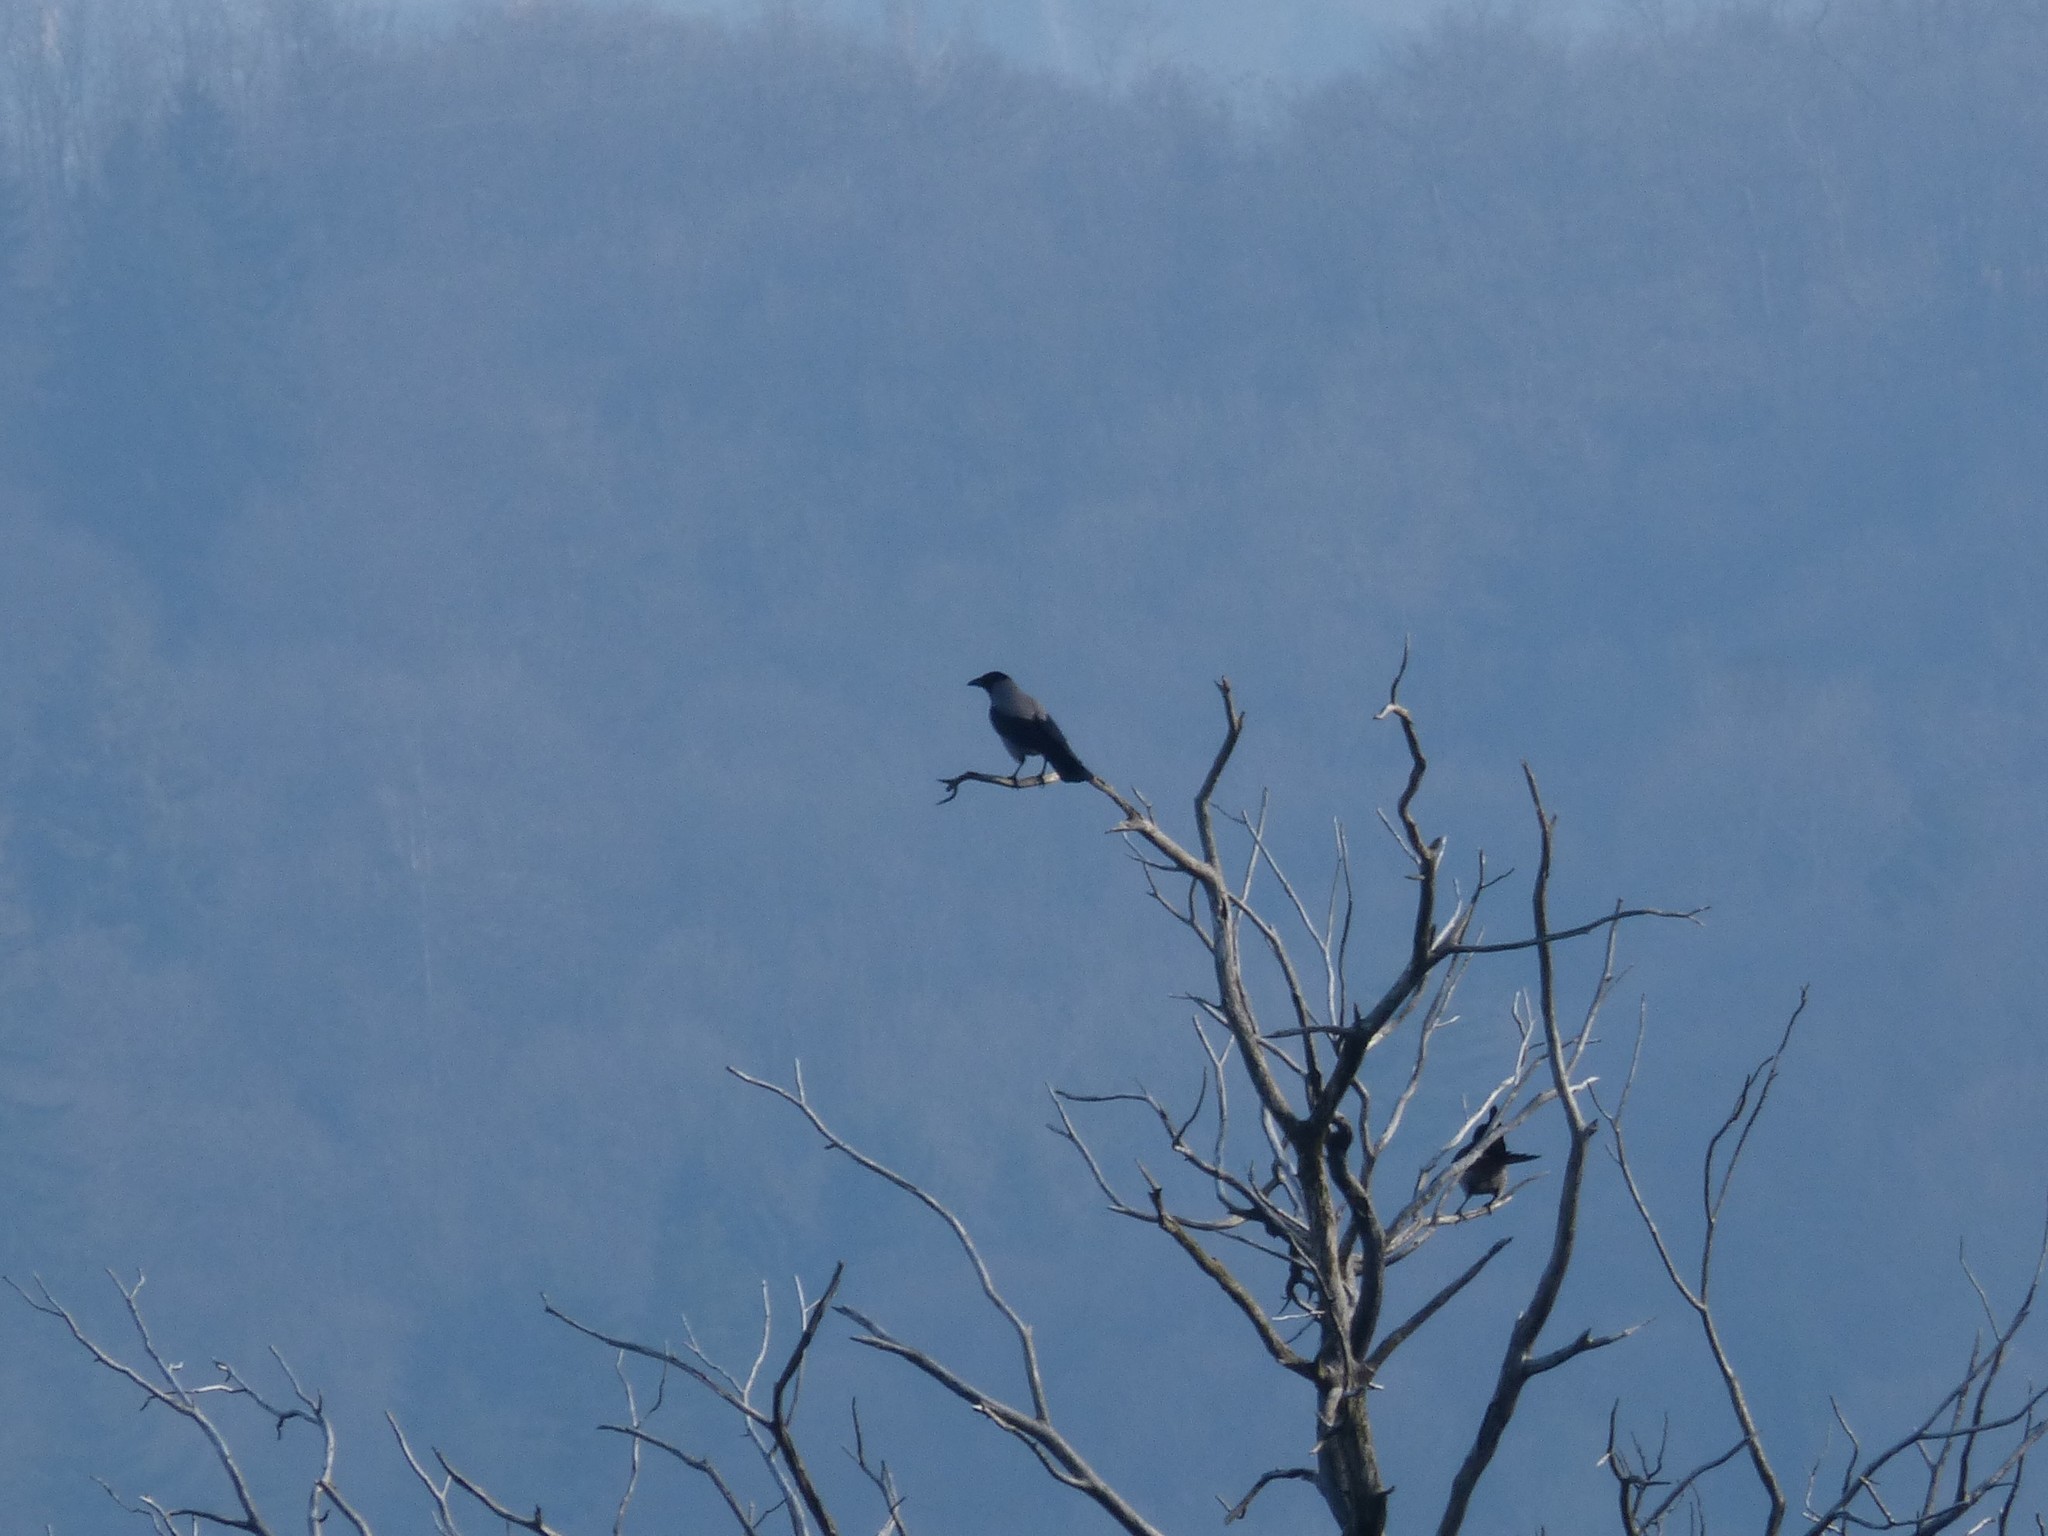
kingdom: Animalia
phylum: Chordata
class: Aves
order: Passeriformes
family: Corvidae
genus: Corvus
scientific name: Corvus cornix
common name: Hooded crow
